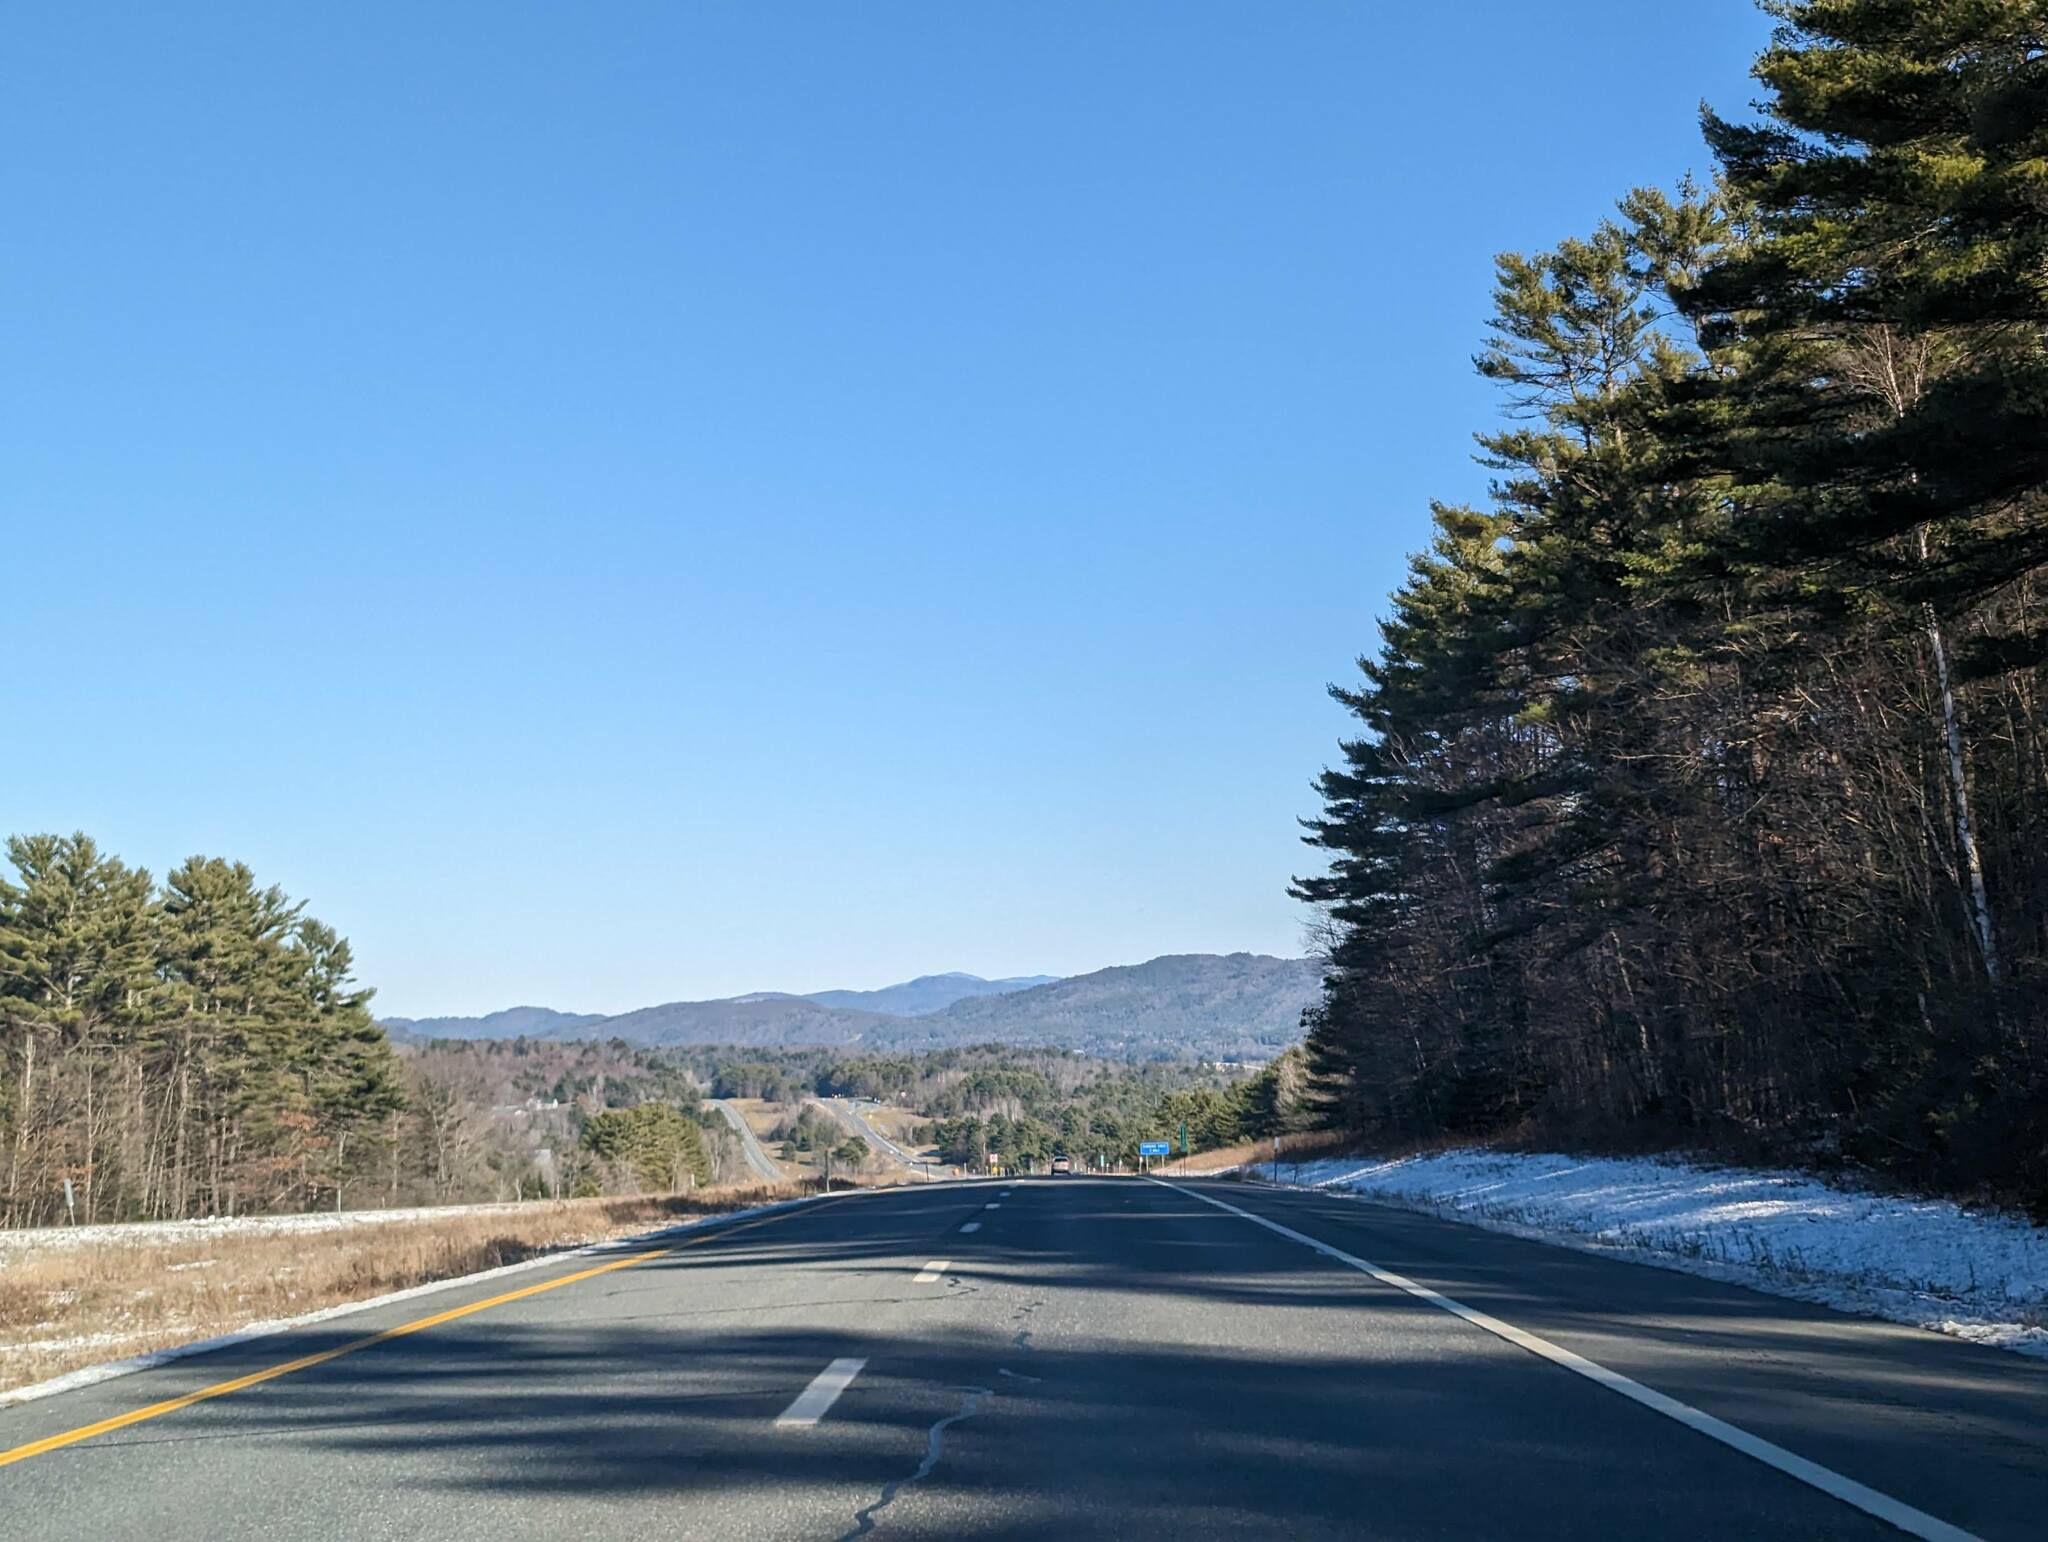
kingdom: Plantae
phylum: Tracheophyta
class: Pinopsida
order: Pinales
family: Pinaceae
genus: Pinus
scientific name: Pinus strobus
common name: Weymouth pine
